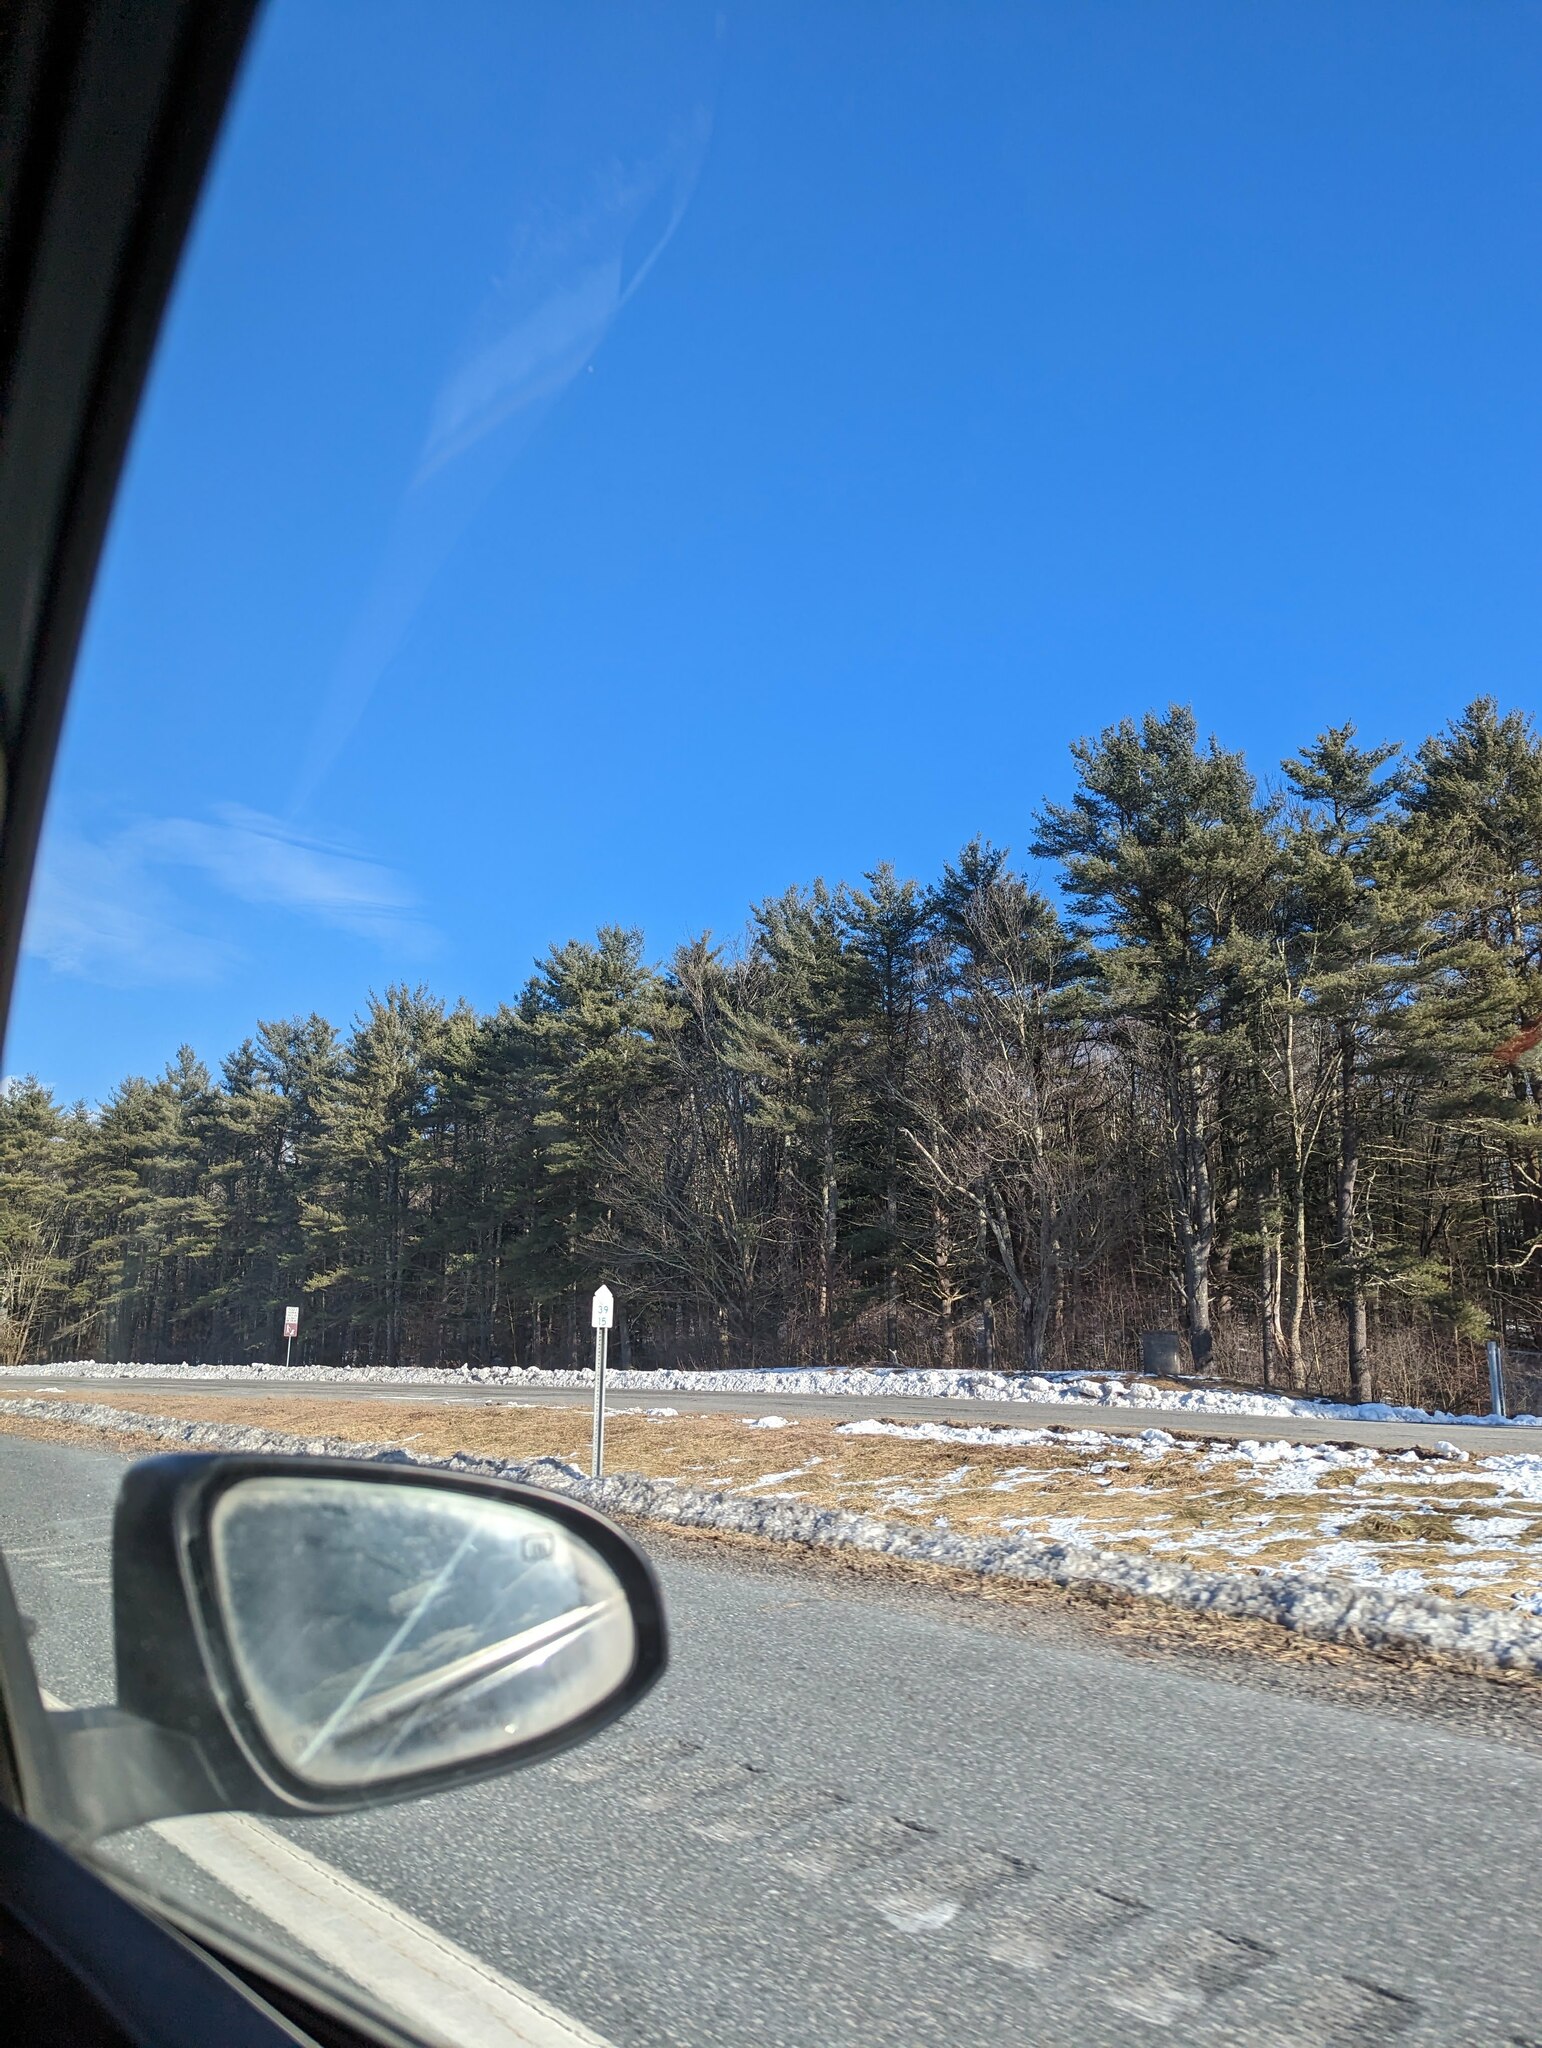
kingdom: Plantae
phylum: Tracheophyta
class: Pinopsida
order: Pinales
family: Pinaceae
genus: Pinus
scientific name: Pinus strobus
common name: Weymouth pine
